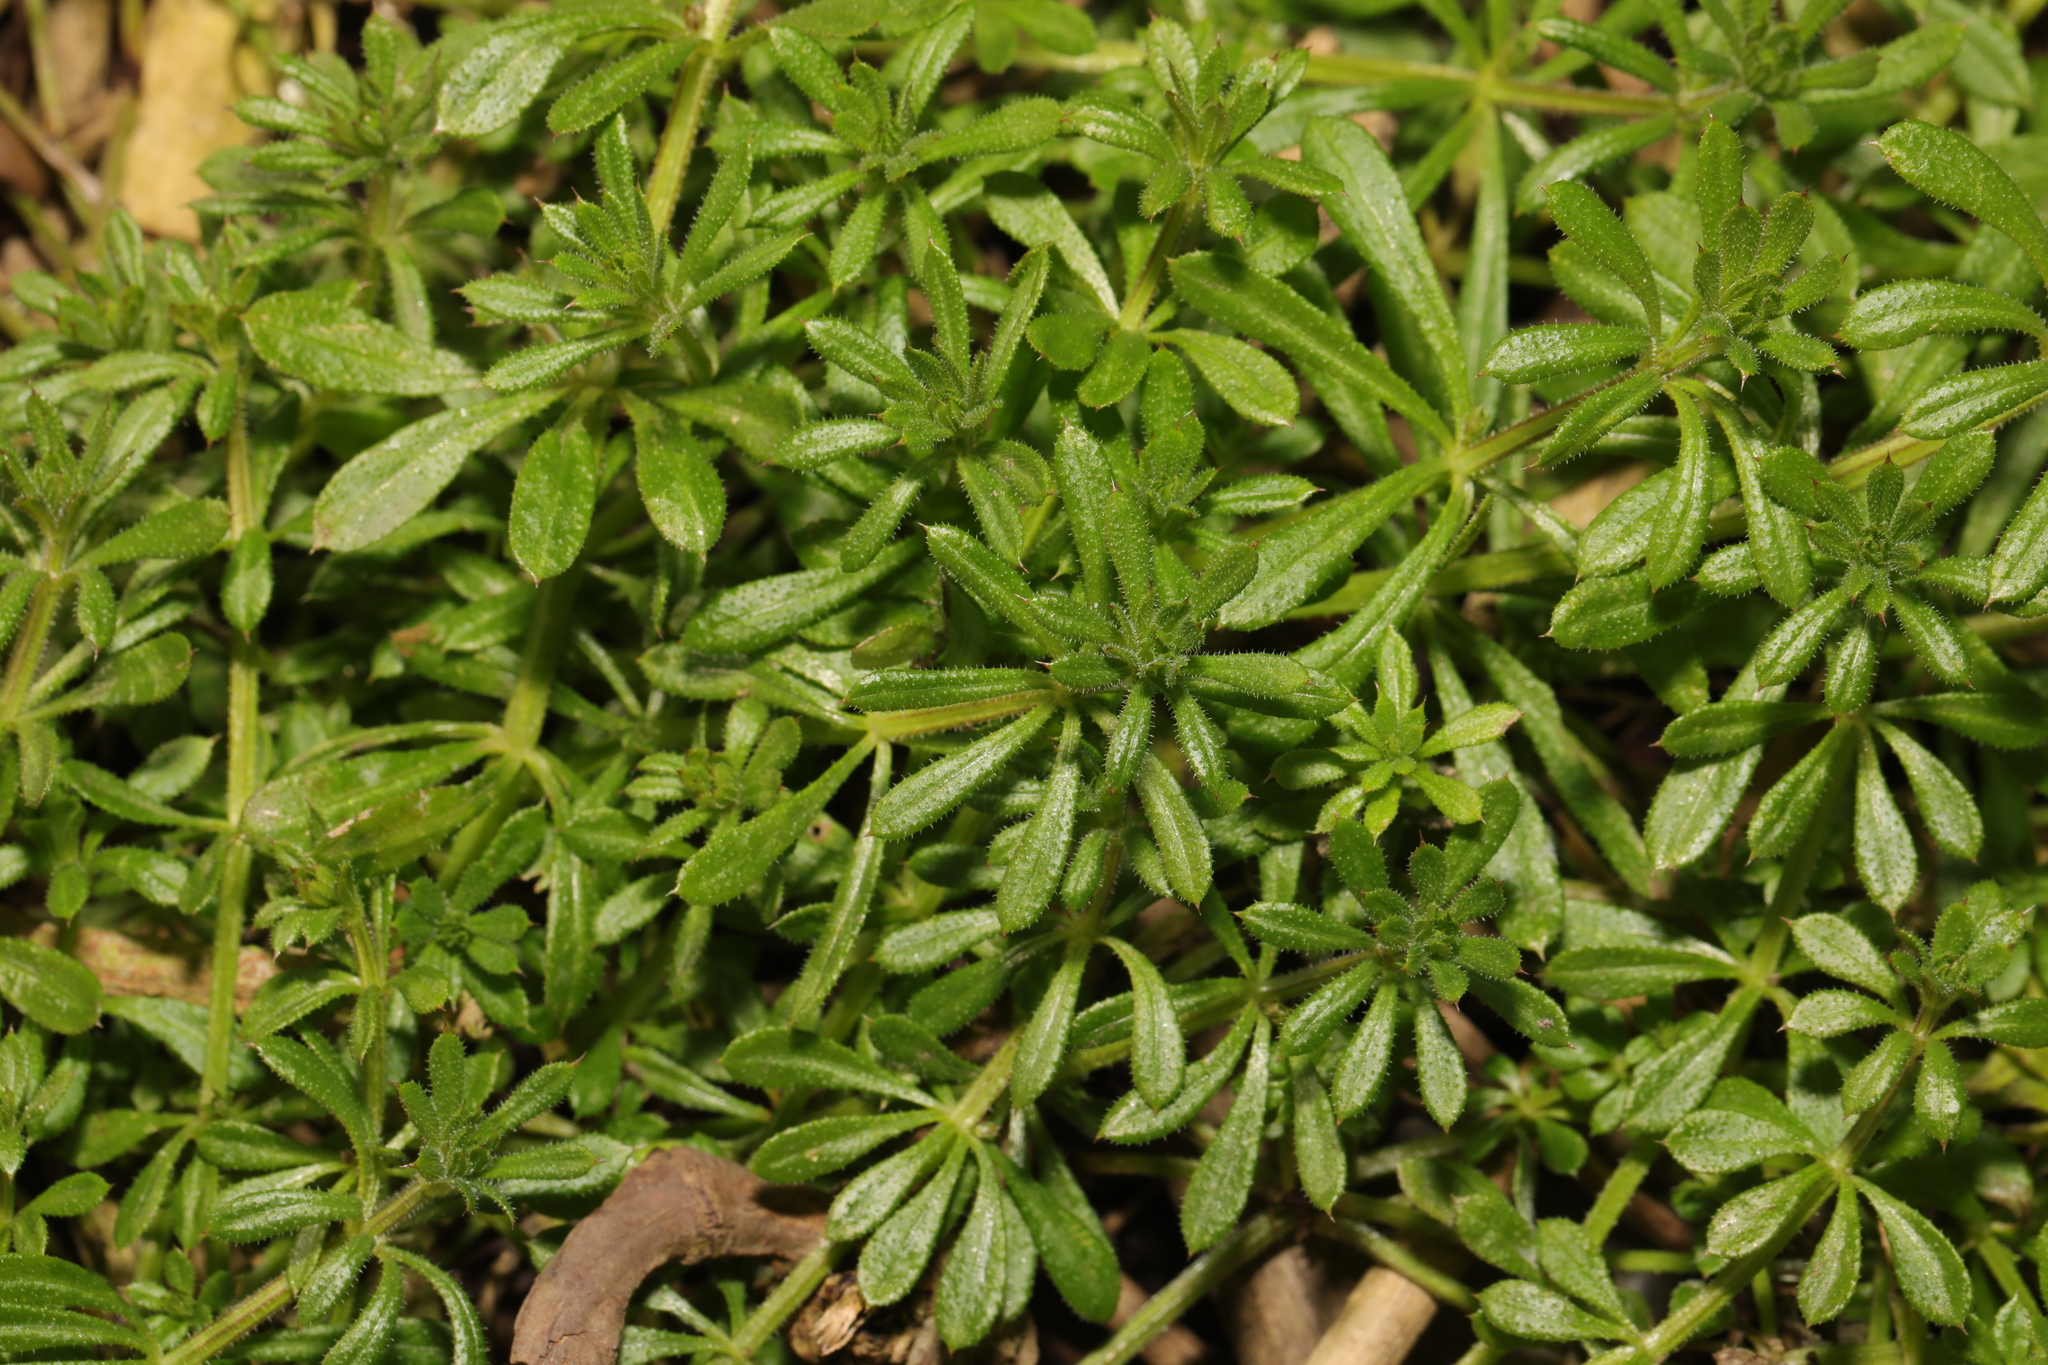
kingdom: Plantae
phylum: Tracheophyta
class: Magnoliopsida
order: Gentianales
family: Rubiaceae
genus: Galium
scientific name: Galium aparine
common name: Cleavers
